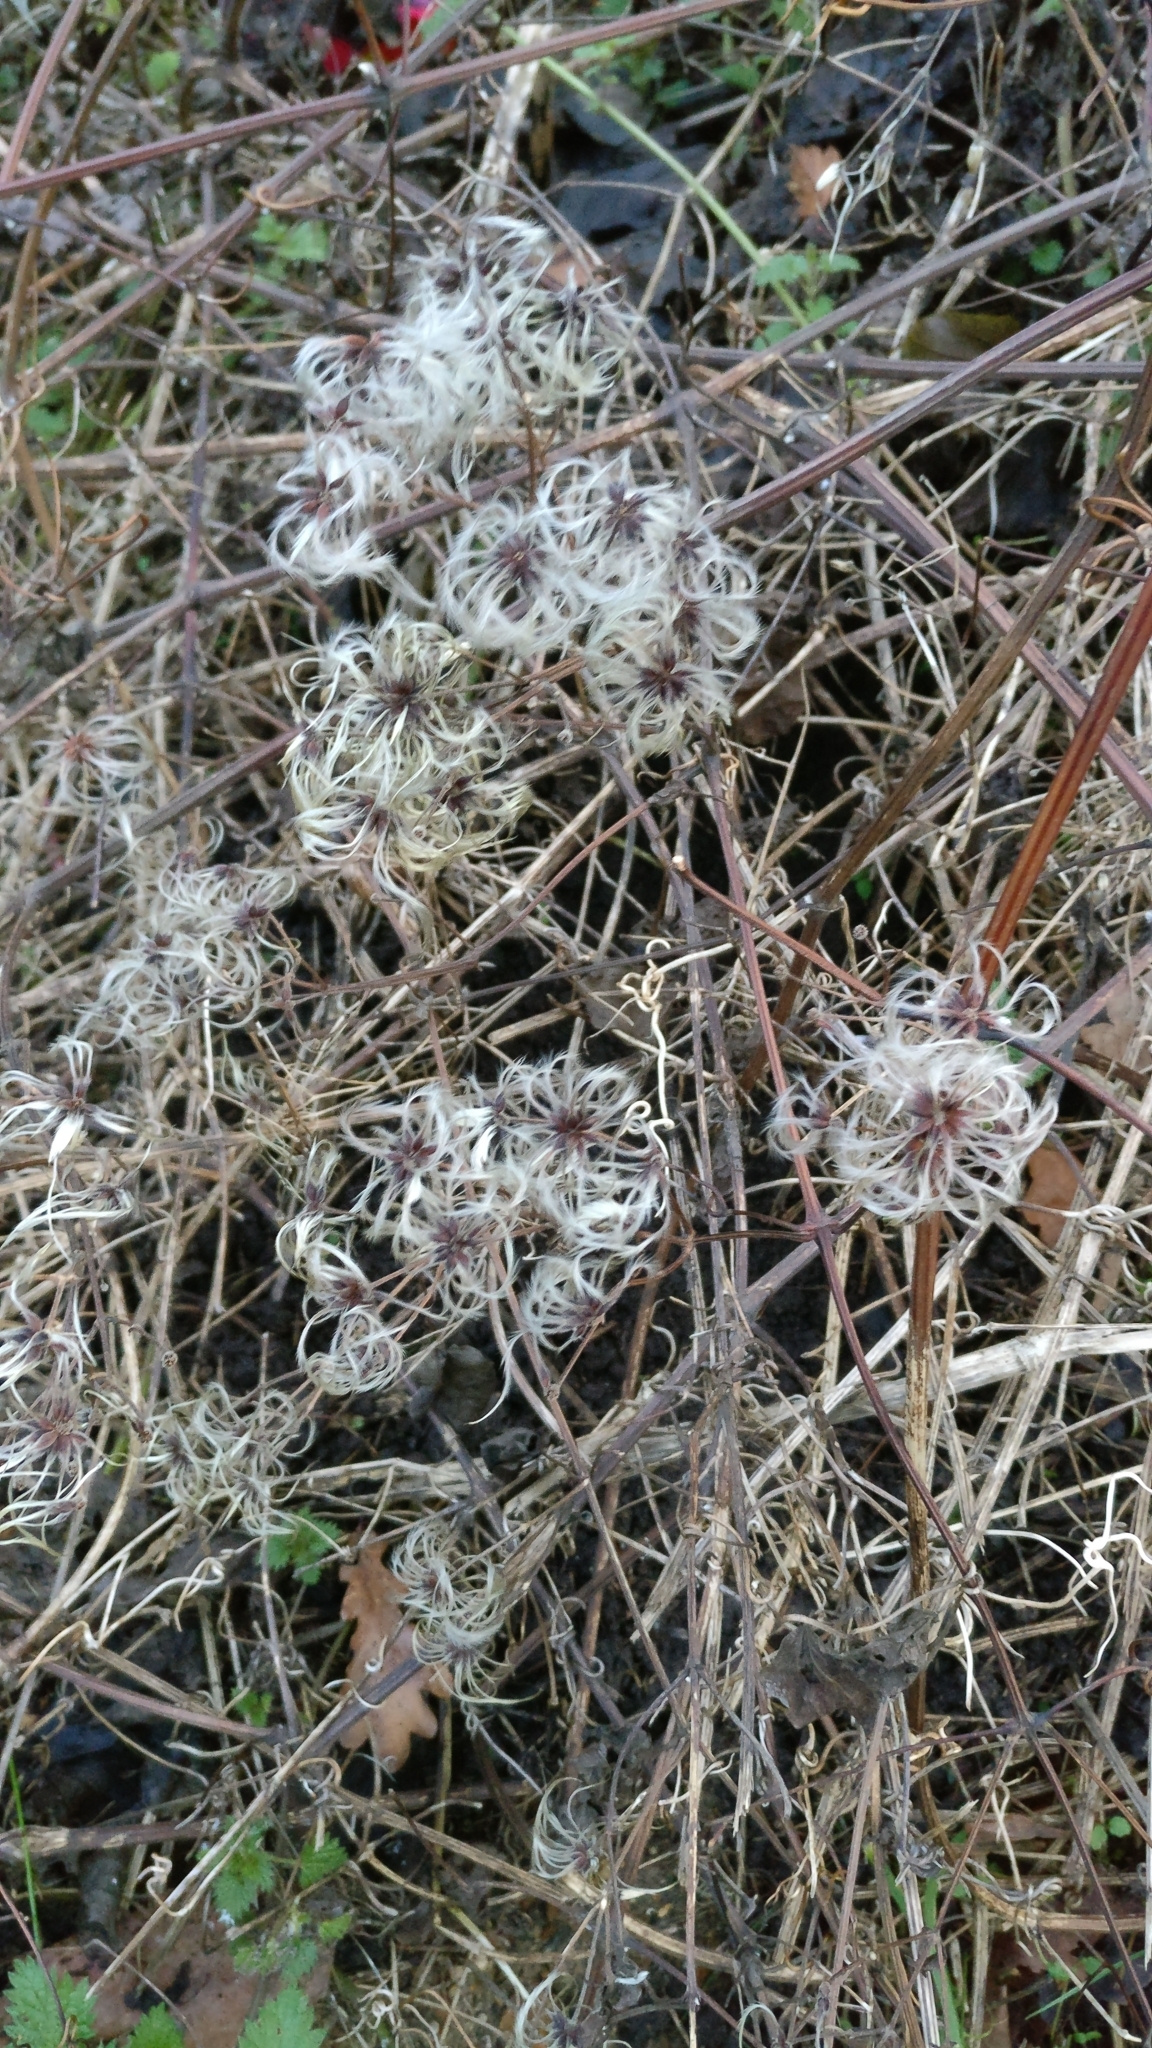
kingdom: Plantae
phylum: Tracheophyta
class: Magnoliopsida
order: Ranunculales
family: Ranunculaceae
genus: Clematis
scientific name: Clematis vitalba
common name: Evergreen clematis
